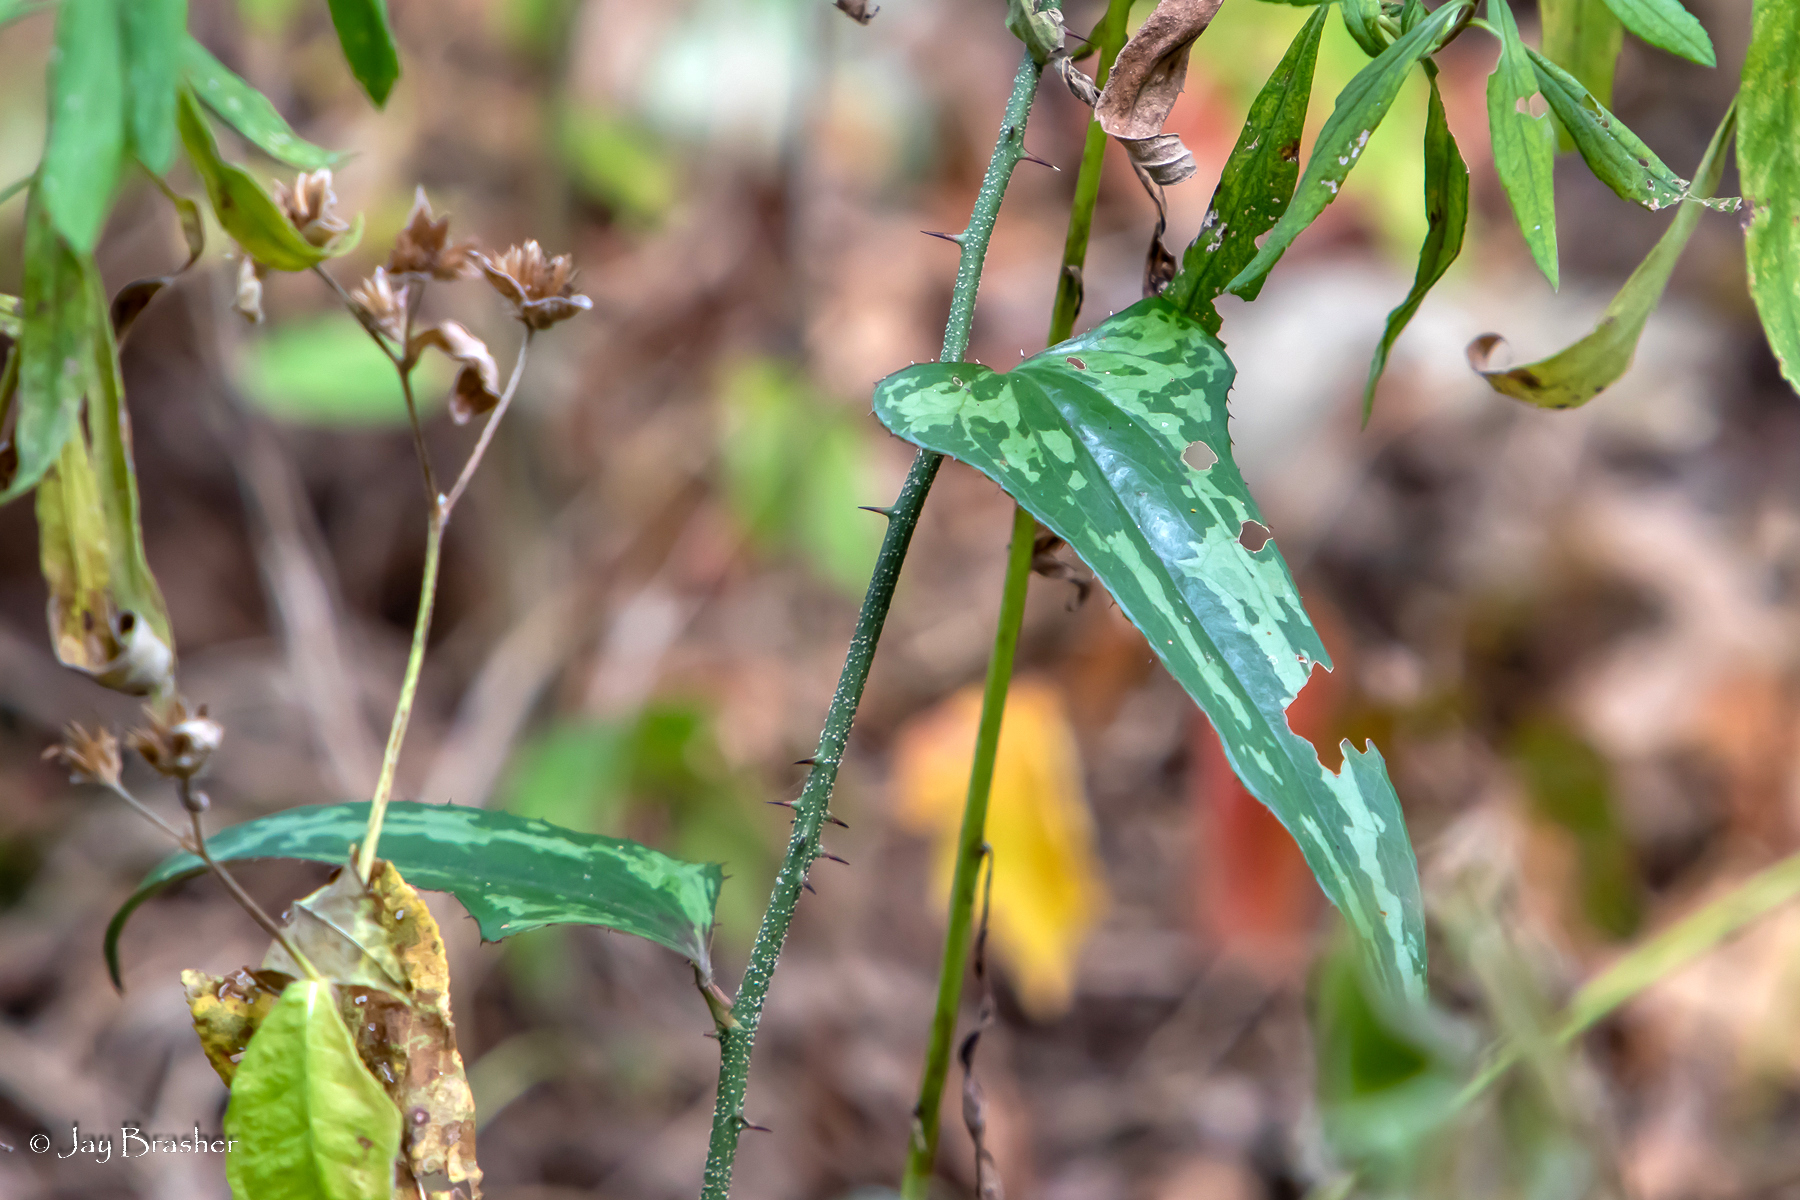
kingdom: Plantae
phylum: Tracheophyta
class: Liliopsida
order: Liliales
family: Smilacaceae
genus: Smilax
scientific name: Smilax bona-nox
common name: Catbrier
